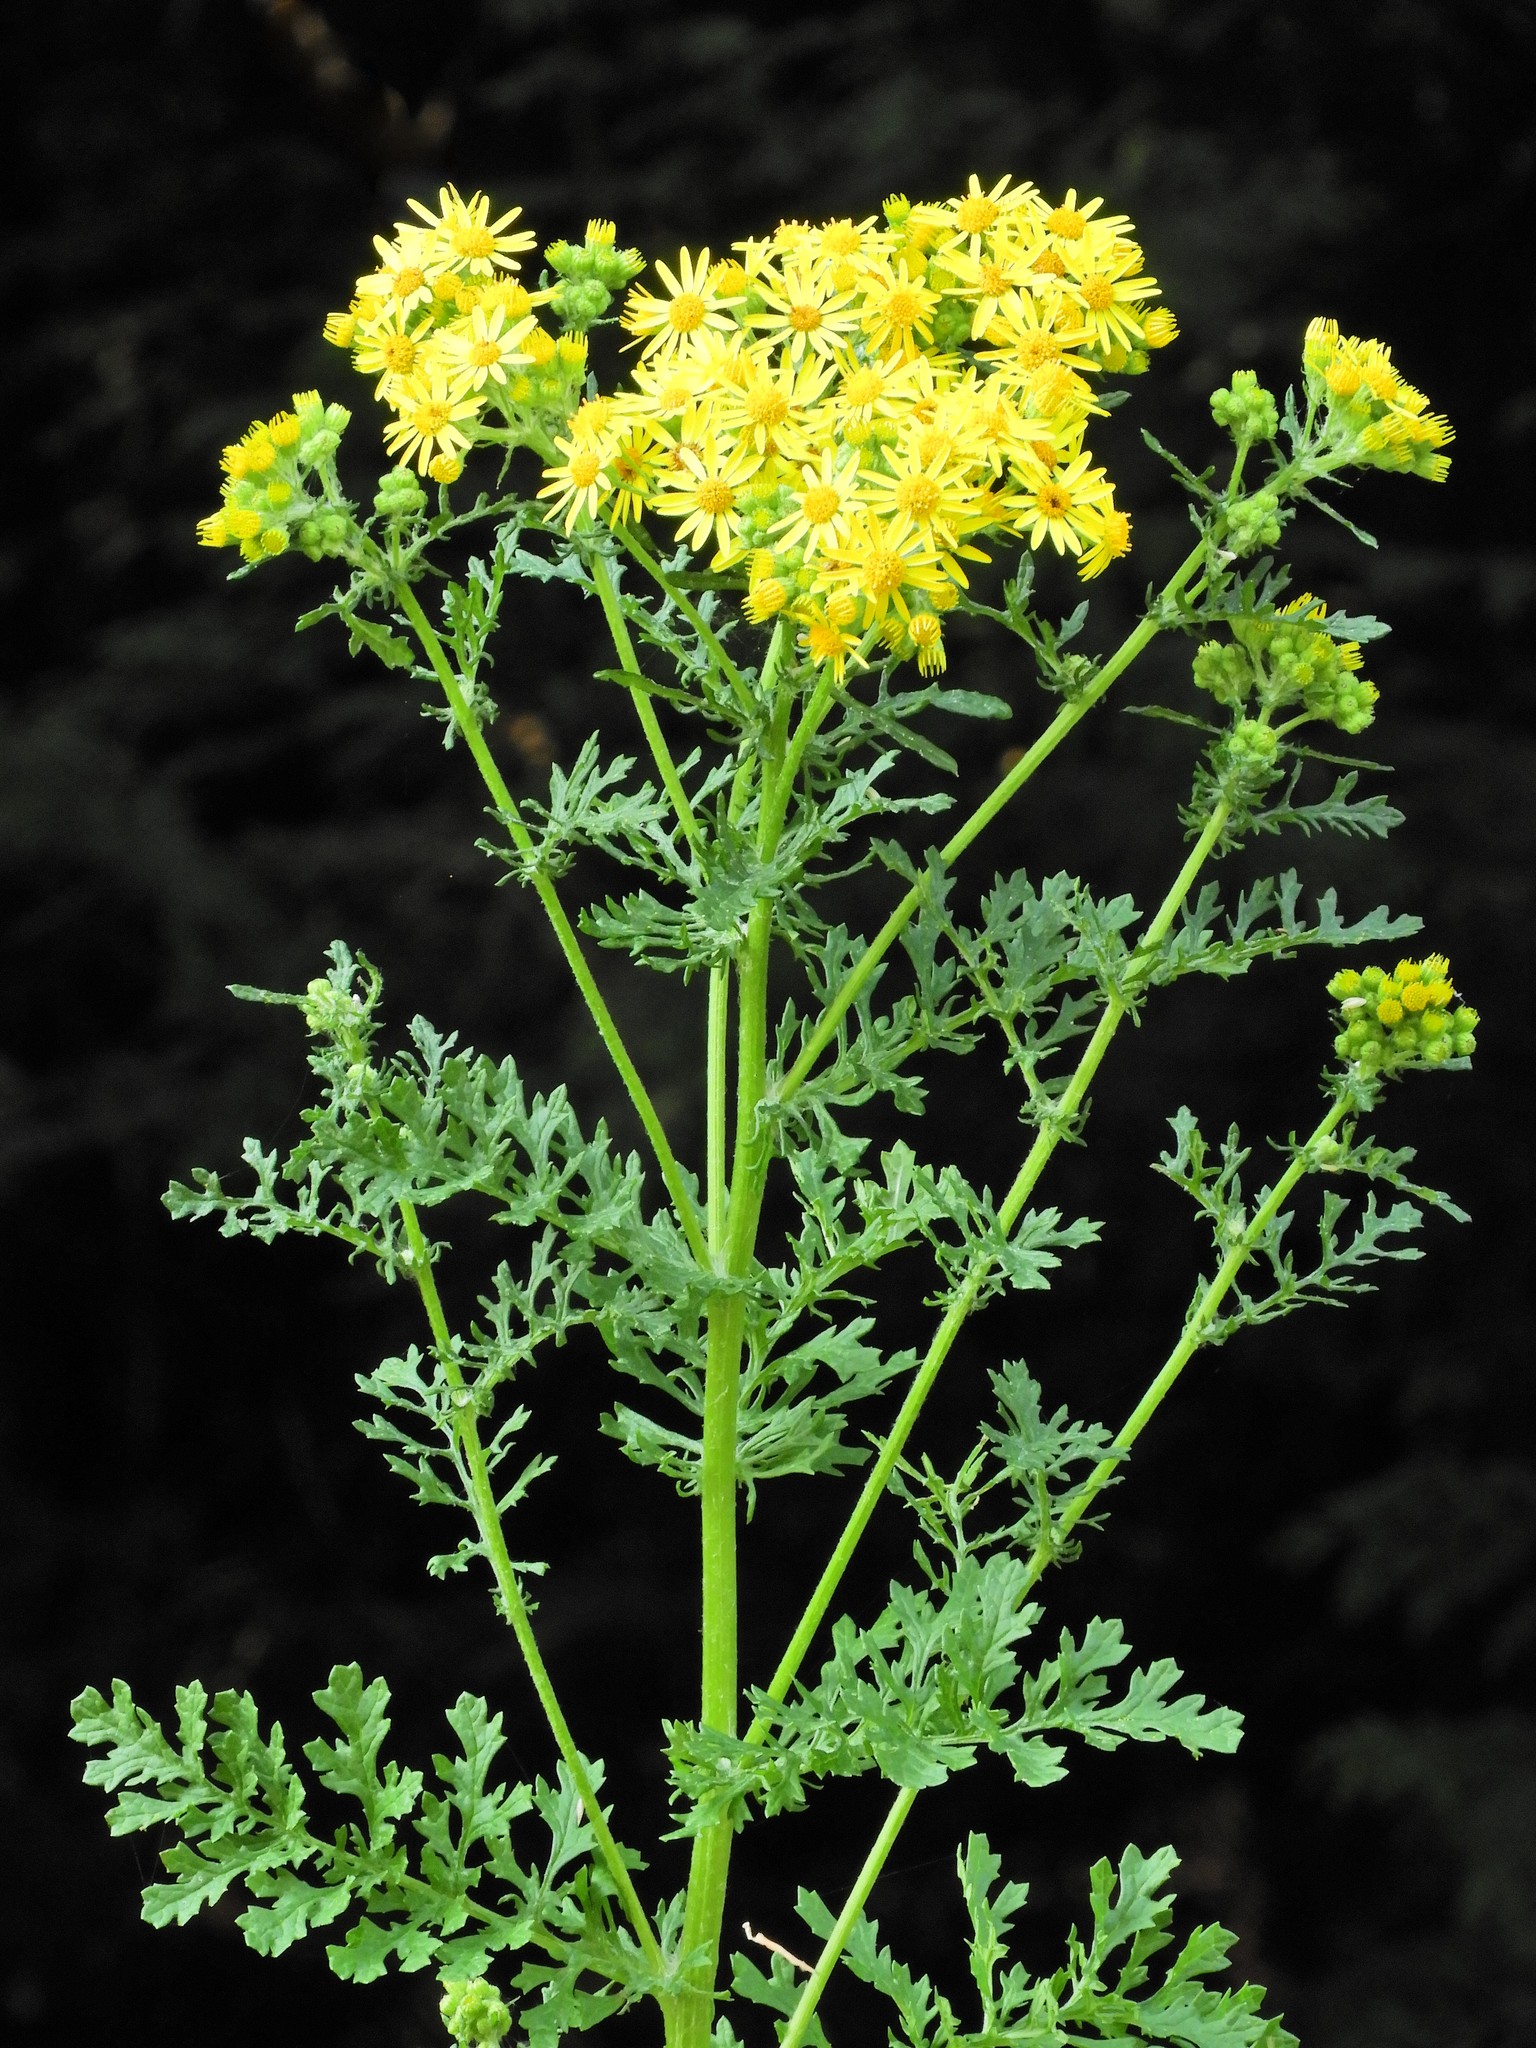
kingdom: Plantae
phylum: Tracheophyta
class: Magnoliopsida
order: Asterales
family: Asteraceae
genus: Jacobaea
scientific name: Jacobaea vulgaris
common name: Stinking willie
